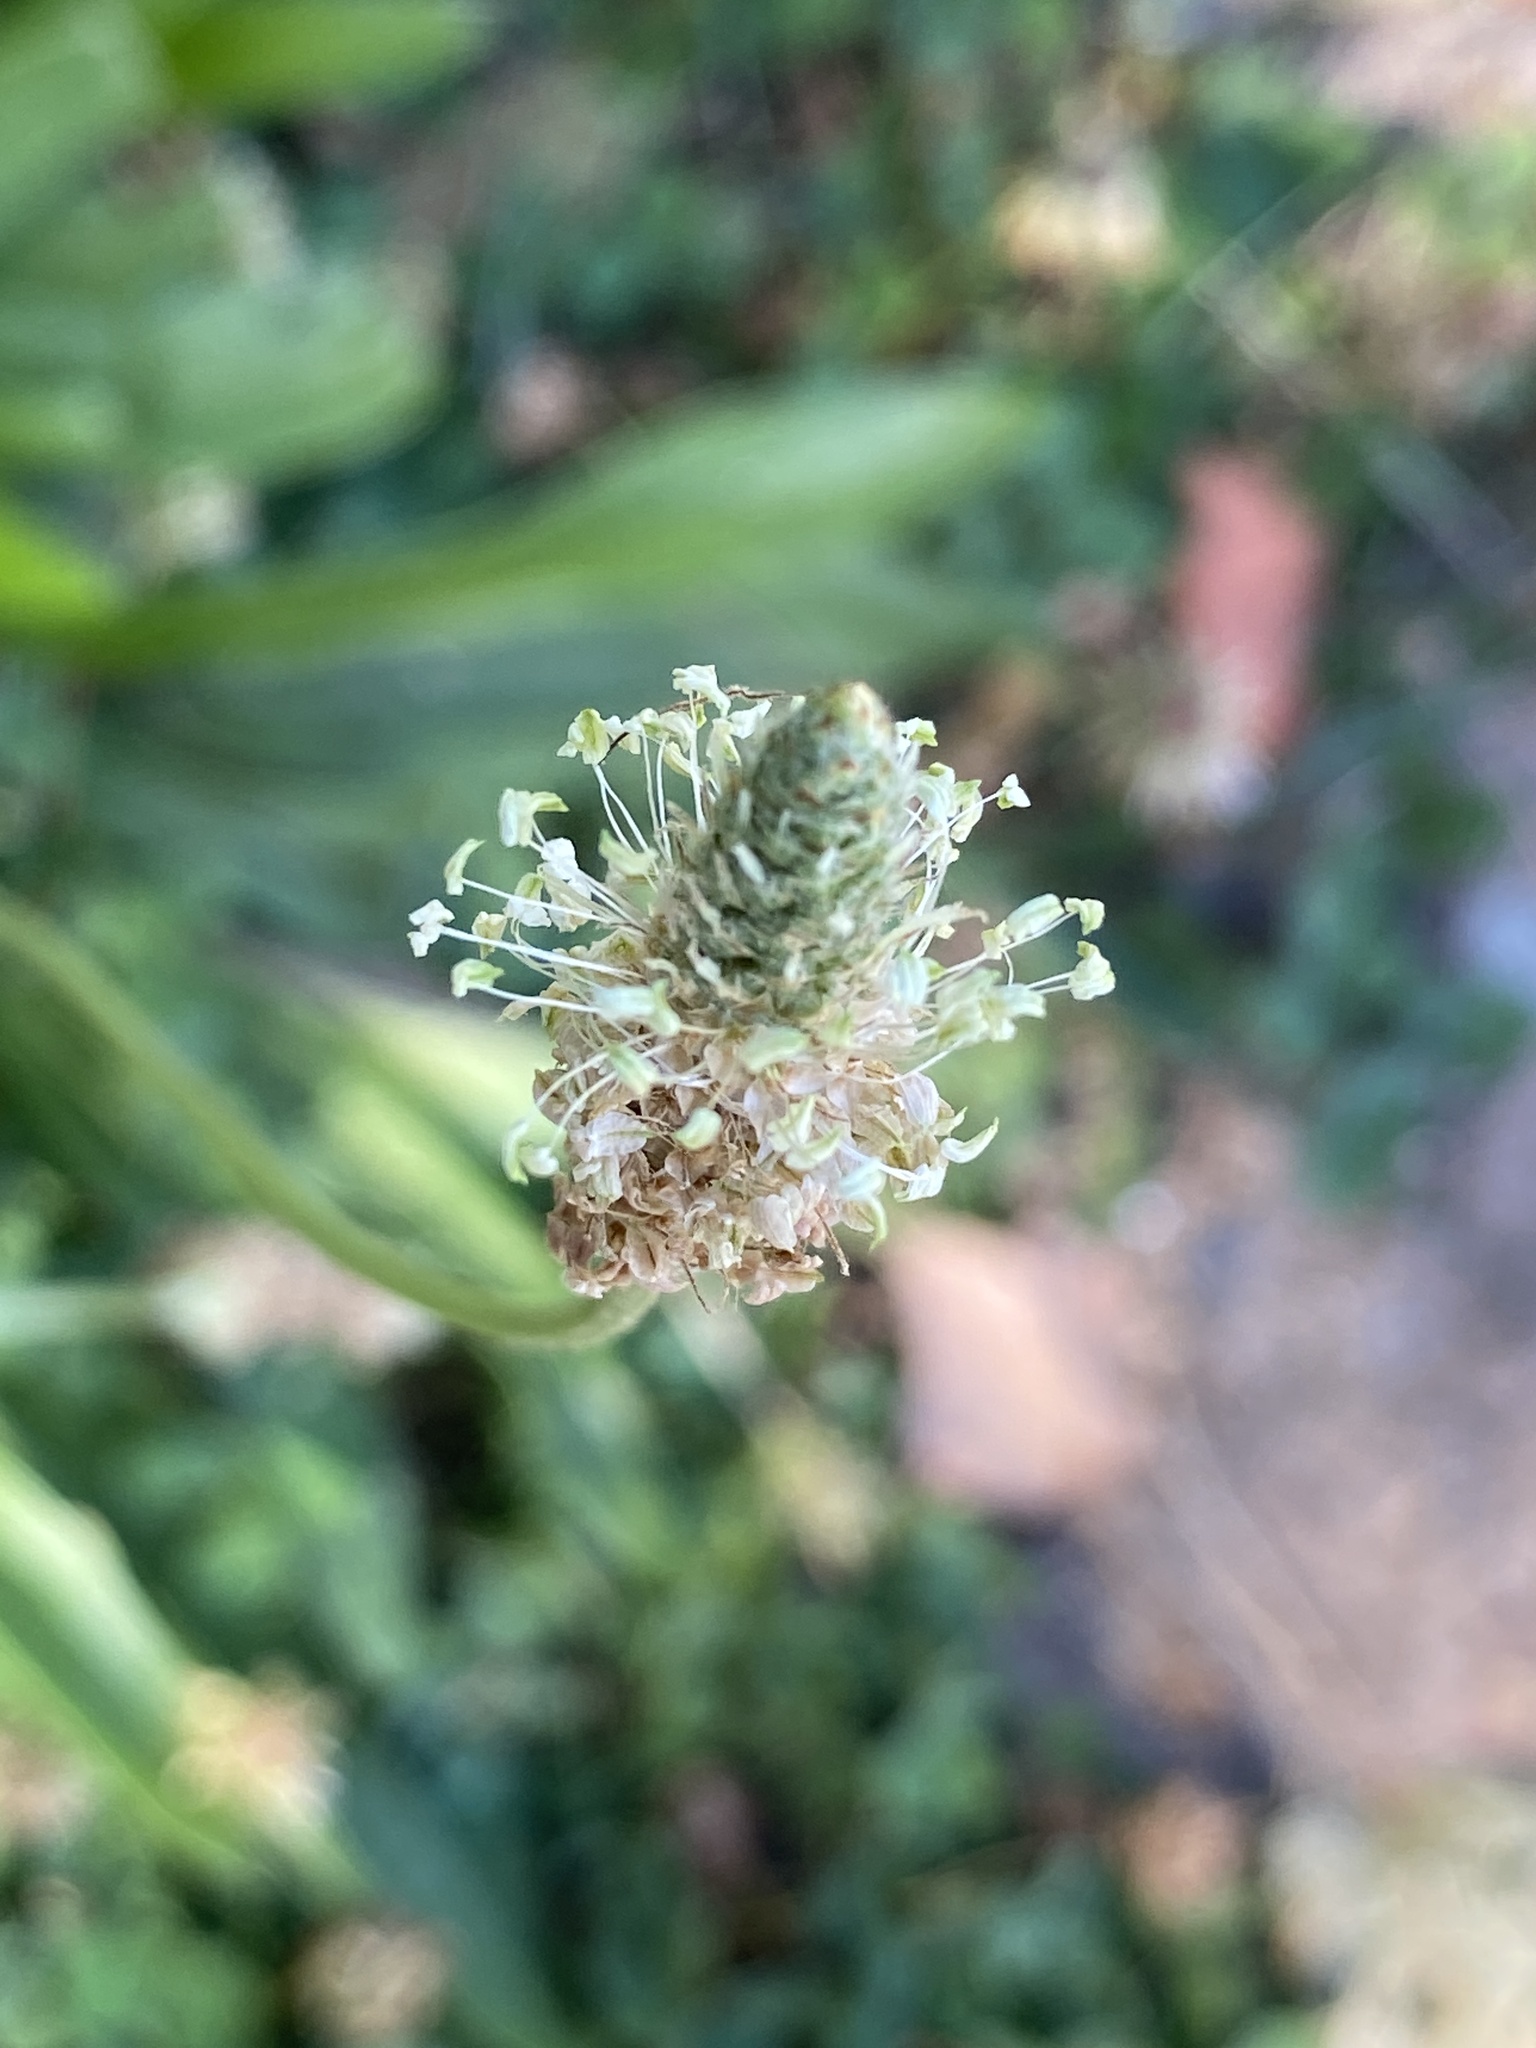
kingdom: Plantae
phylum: Tracheophyta
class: Magnoliopsida
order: Lamiales
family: Plantaginaceae
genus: Plantago
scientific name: Plantago lanceolata
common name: Ribwort plantain
